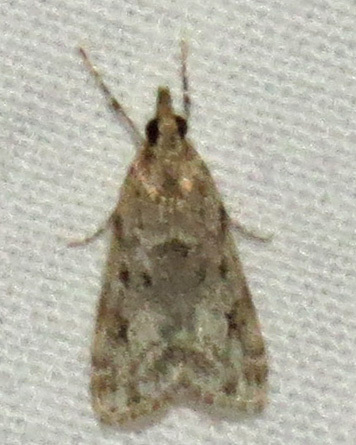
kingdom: Animalia
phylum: Arthropoda
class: Insecta
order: Lepidoptera
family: Crambidae
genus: Eudonia
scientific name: Eudonia heterosalis
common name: Mcdunnough's eudonia
